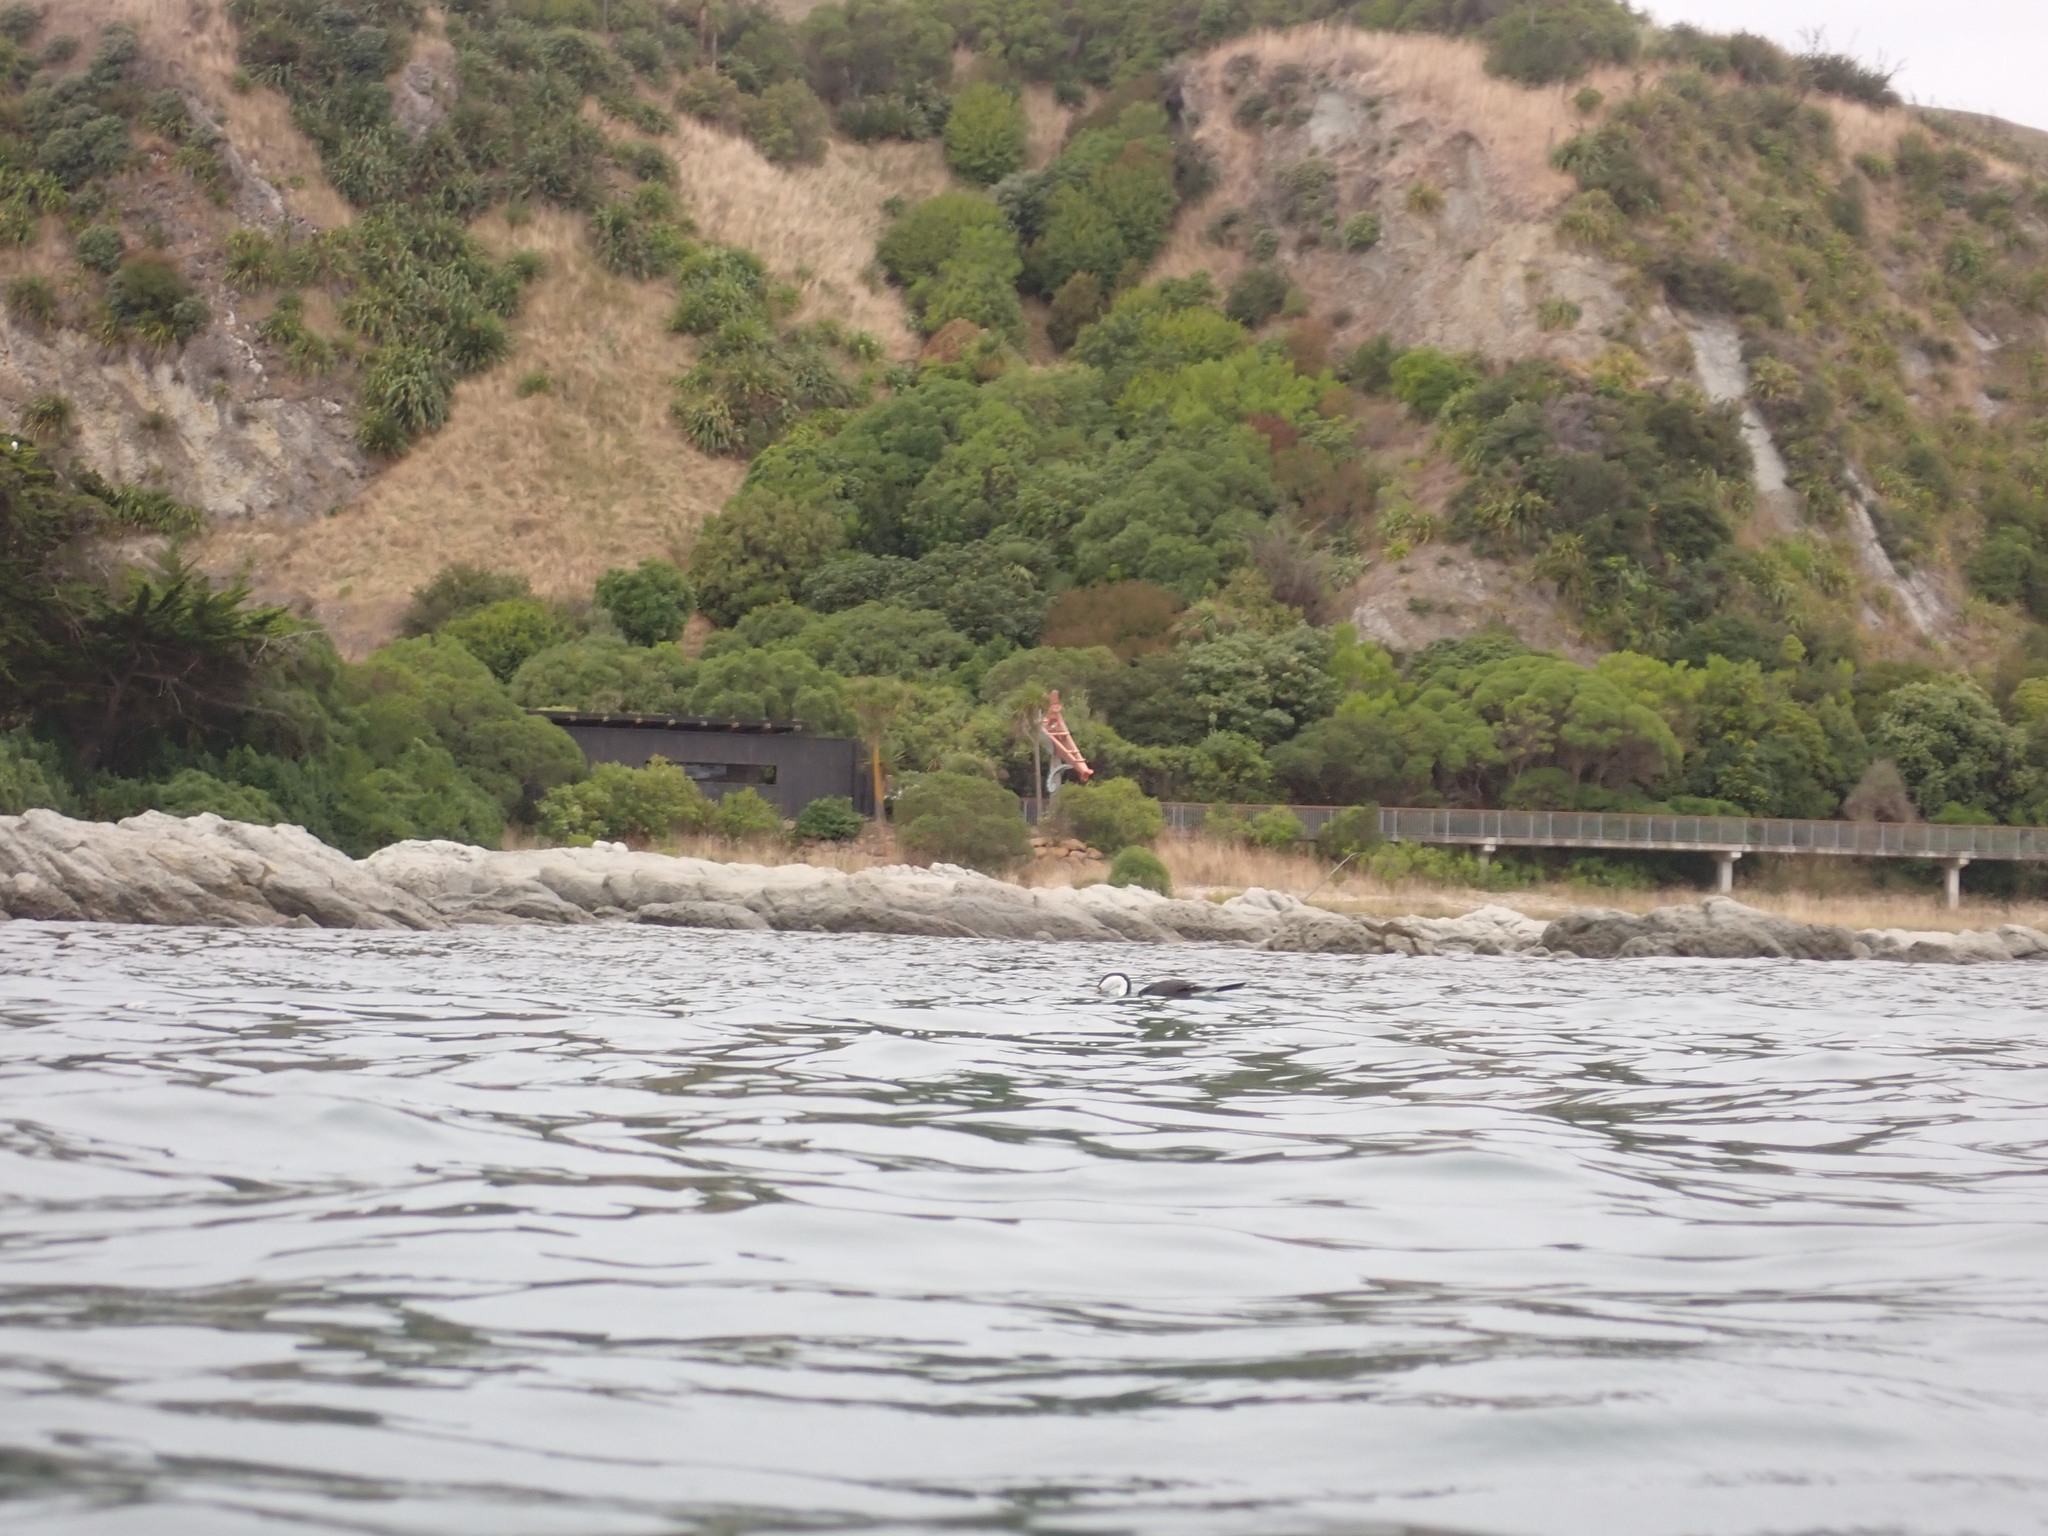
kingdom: Animalia
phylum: Chordata
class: Aves
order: Suliformes
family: Phalacrocoracidae
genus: Phalacrocorax
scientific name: Phalacrocorax varius
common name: Pied cormorant
